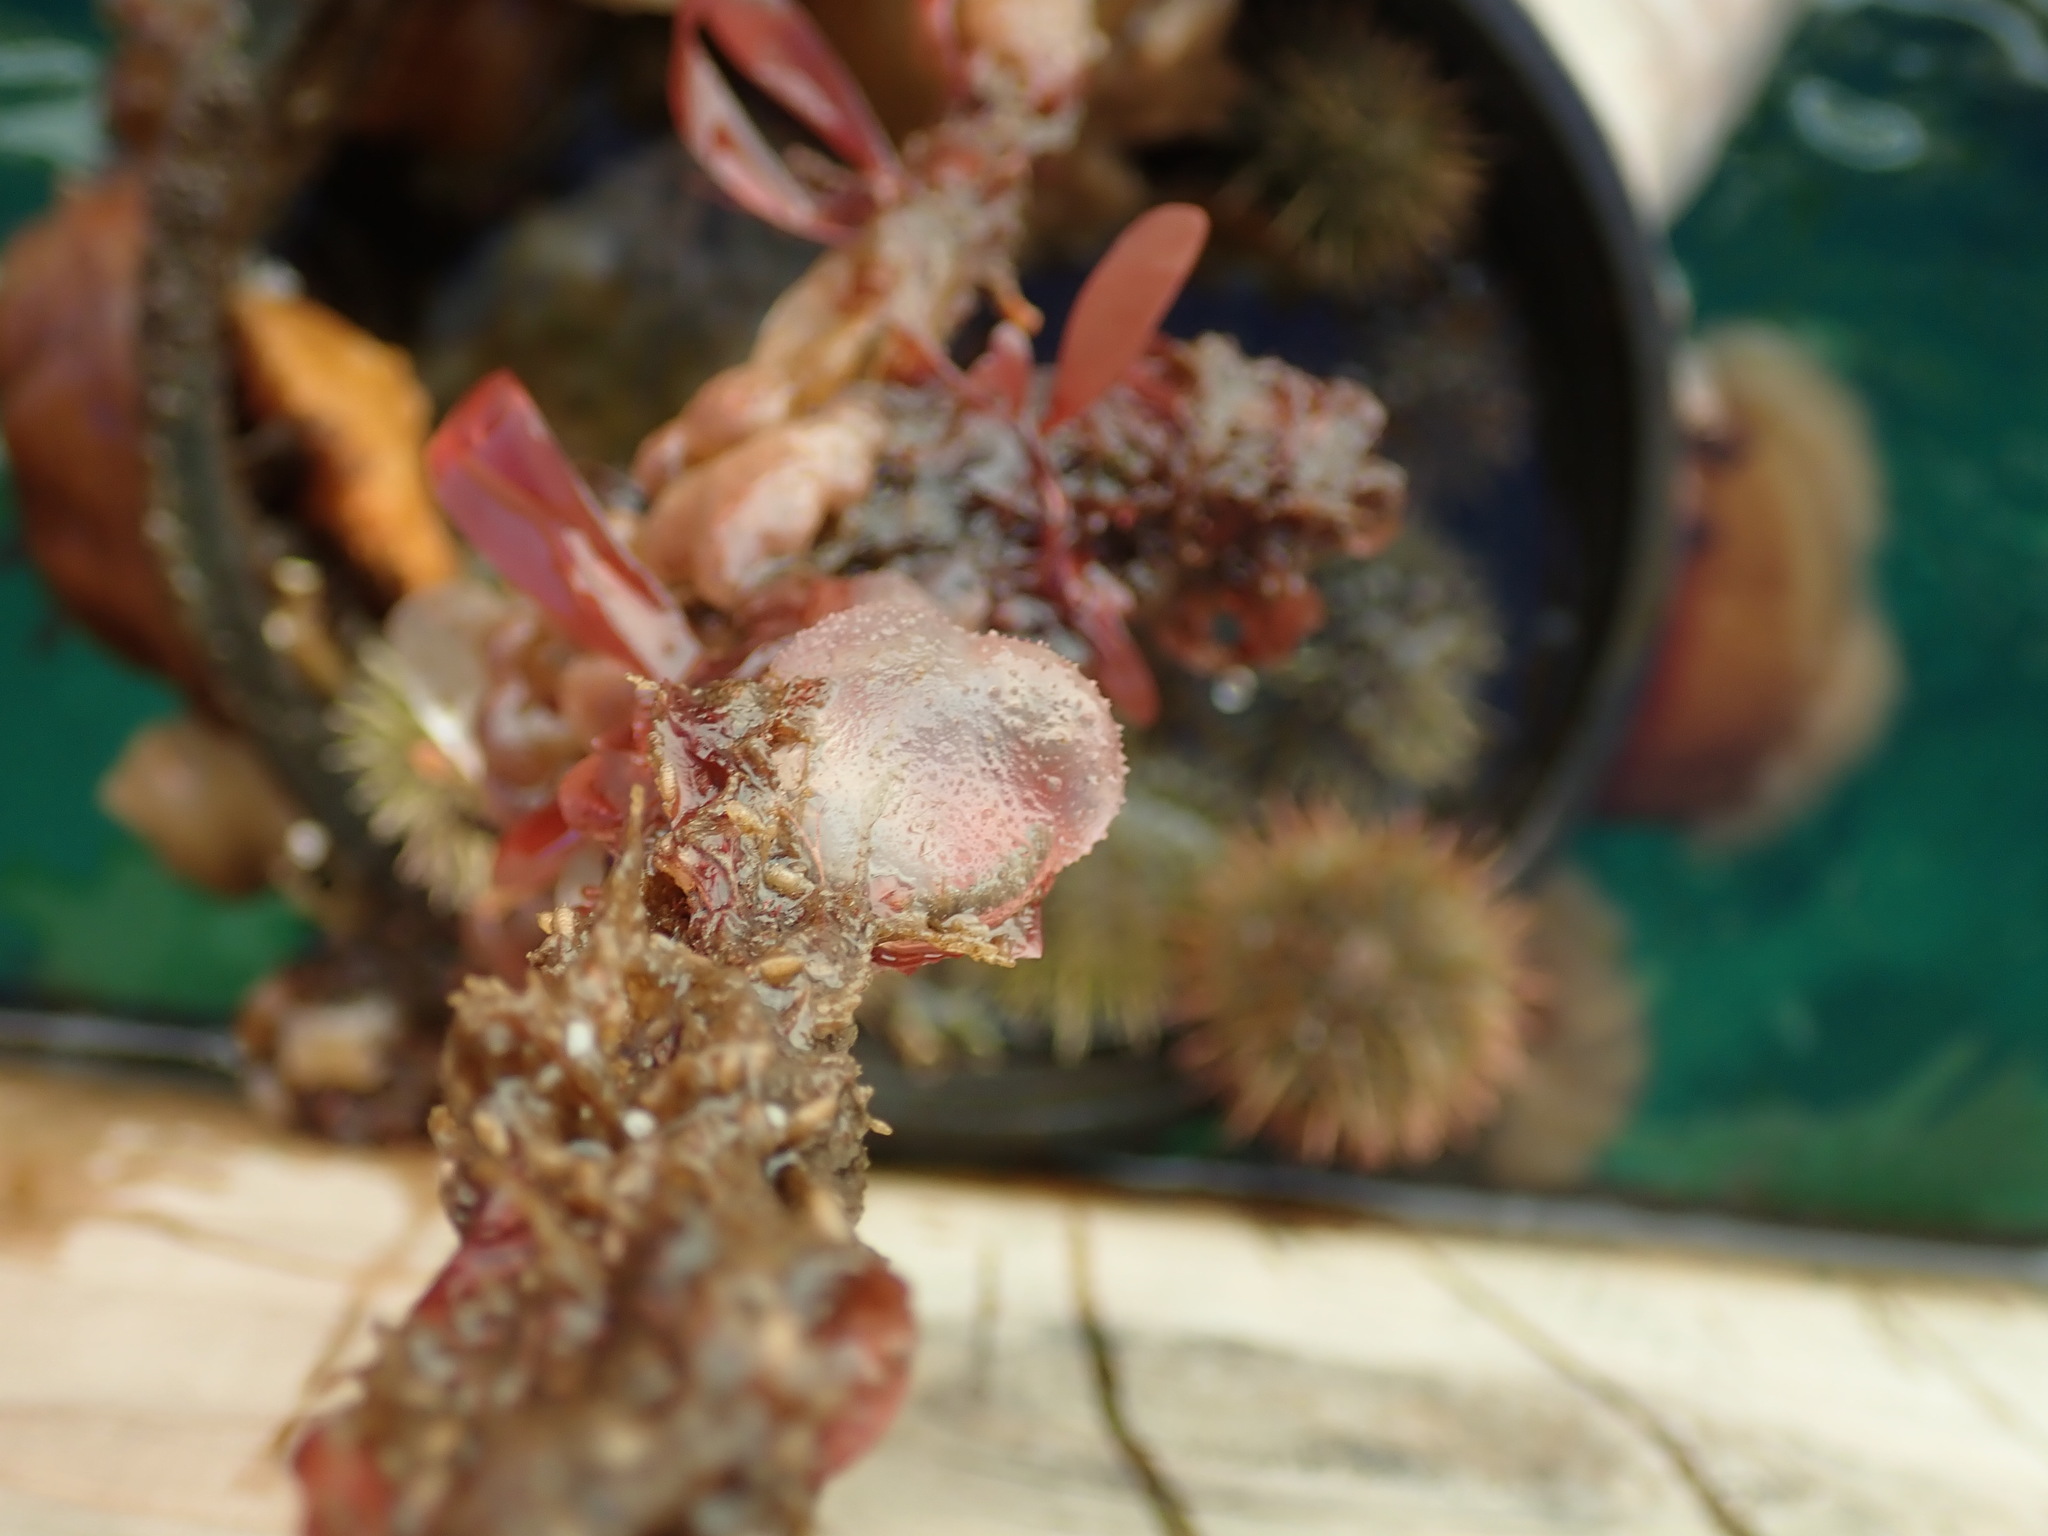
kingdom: Animalia
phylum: Chordata
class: Ascidiacea
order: Phlebobranchia
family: Corellidae
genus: Corella
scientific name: Corella inflata
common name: Ascidian
